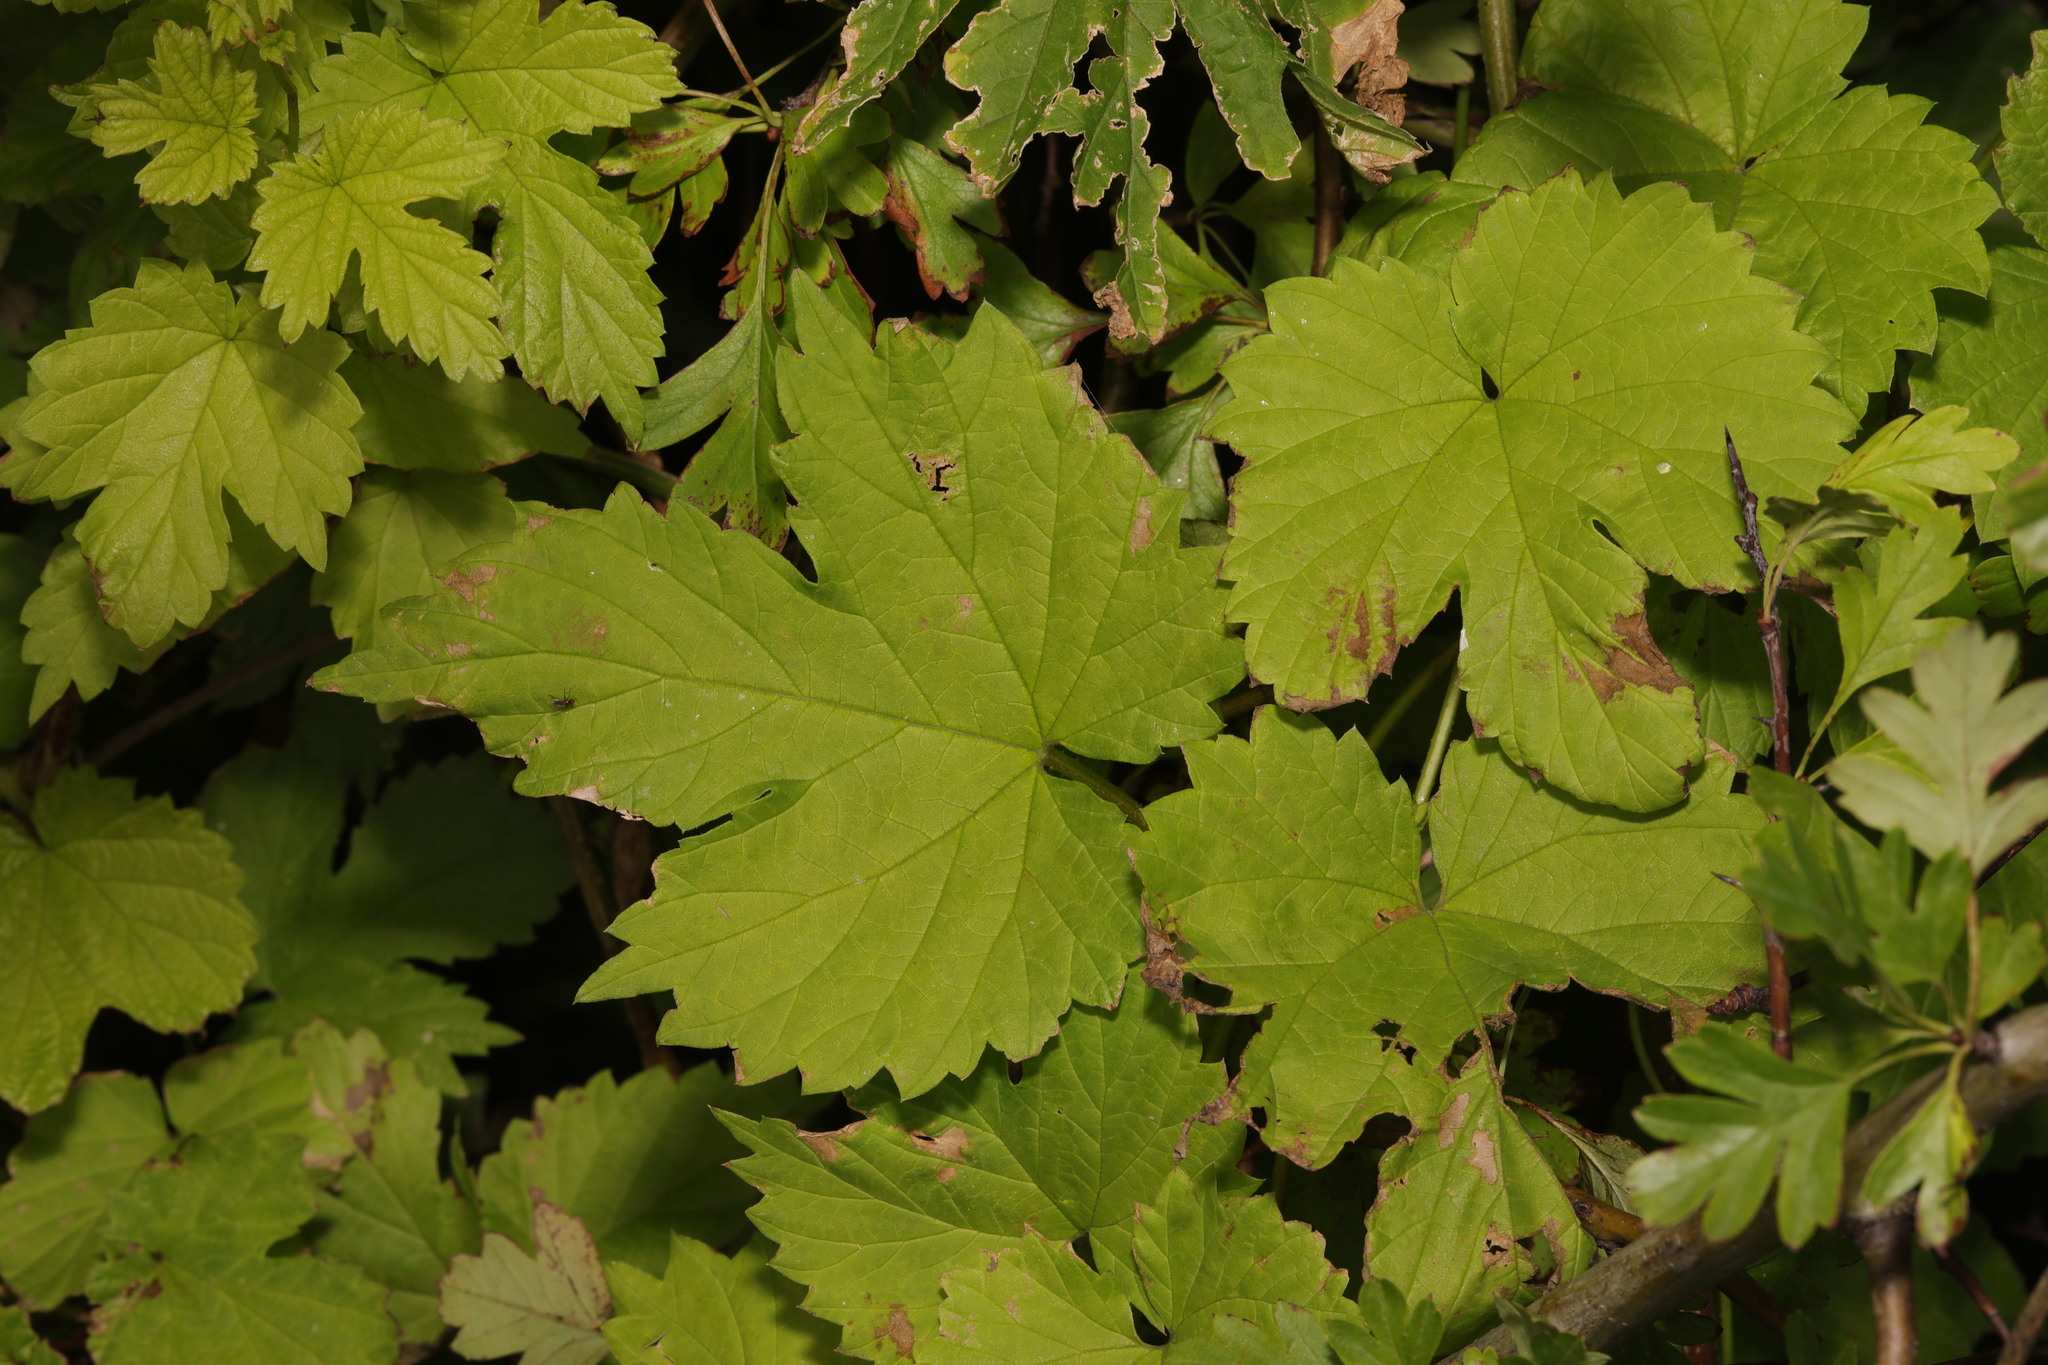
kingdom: Plantae
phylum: Tracheophyta
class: Magnoliopsida
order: Rosales
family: Cannabaceae
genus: Humulus
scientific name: Humulus lupulus
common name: Hop
